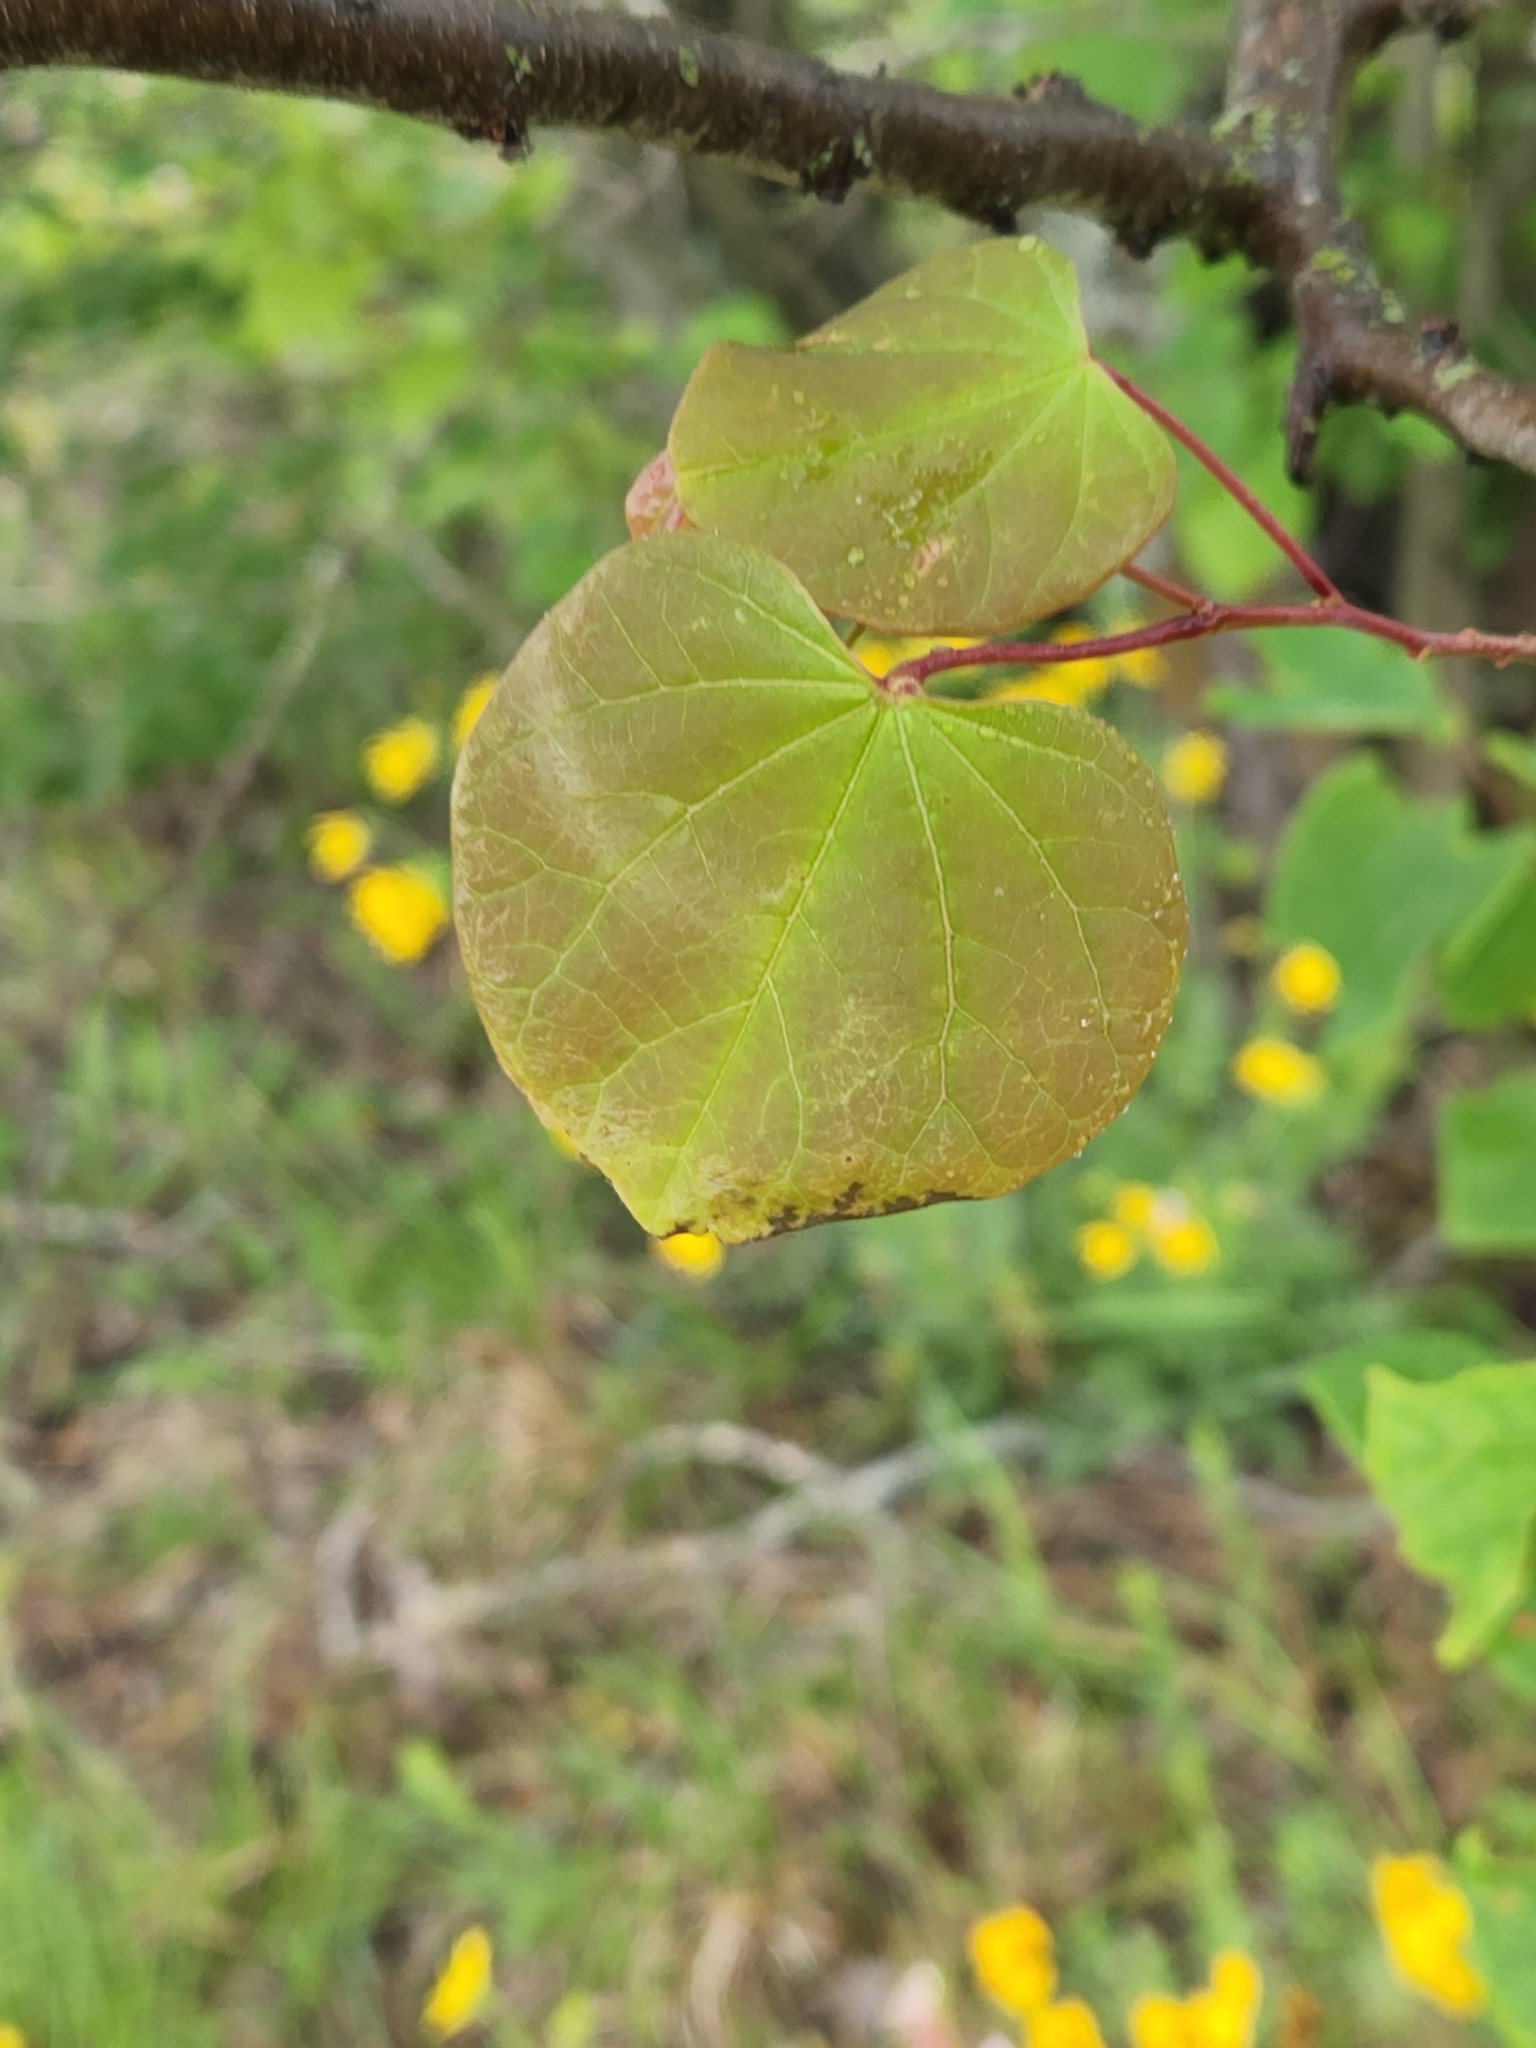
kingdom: Plantae
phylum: Tracheophyta
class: Magnoliopsida
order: Fabales
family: Fabaceae
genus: Cercis
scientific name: Cercis canadensis
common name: Eastern redbud
